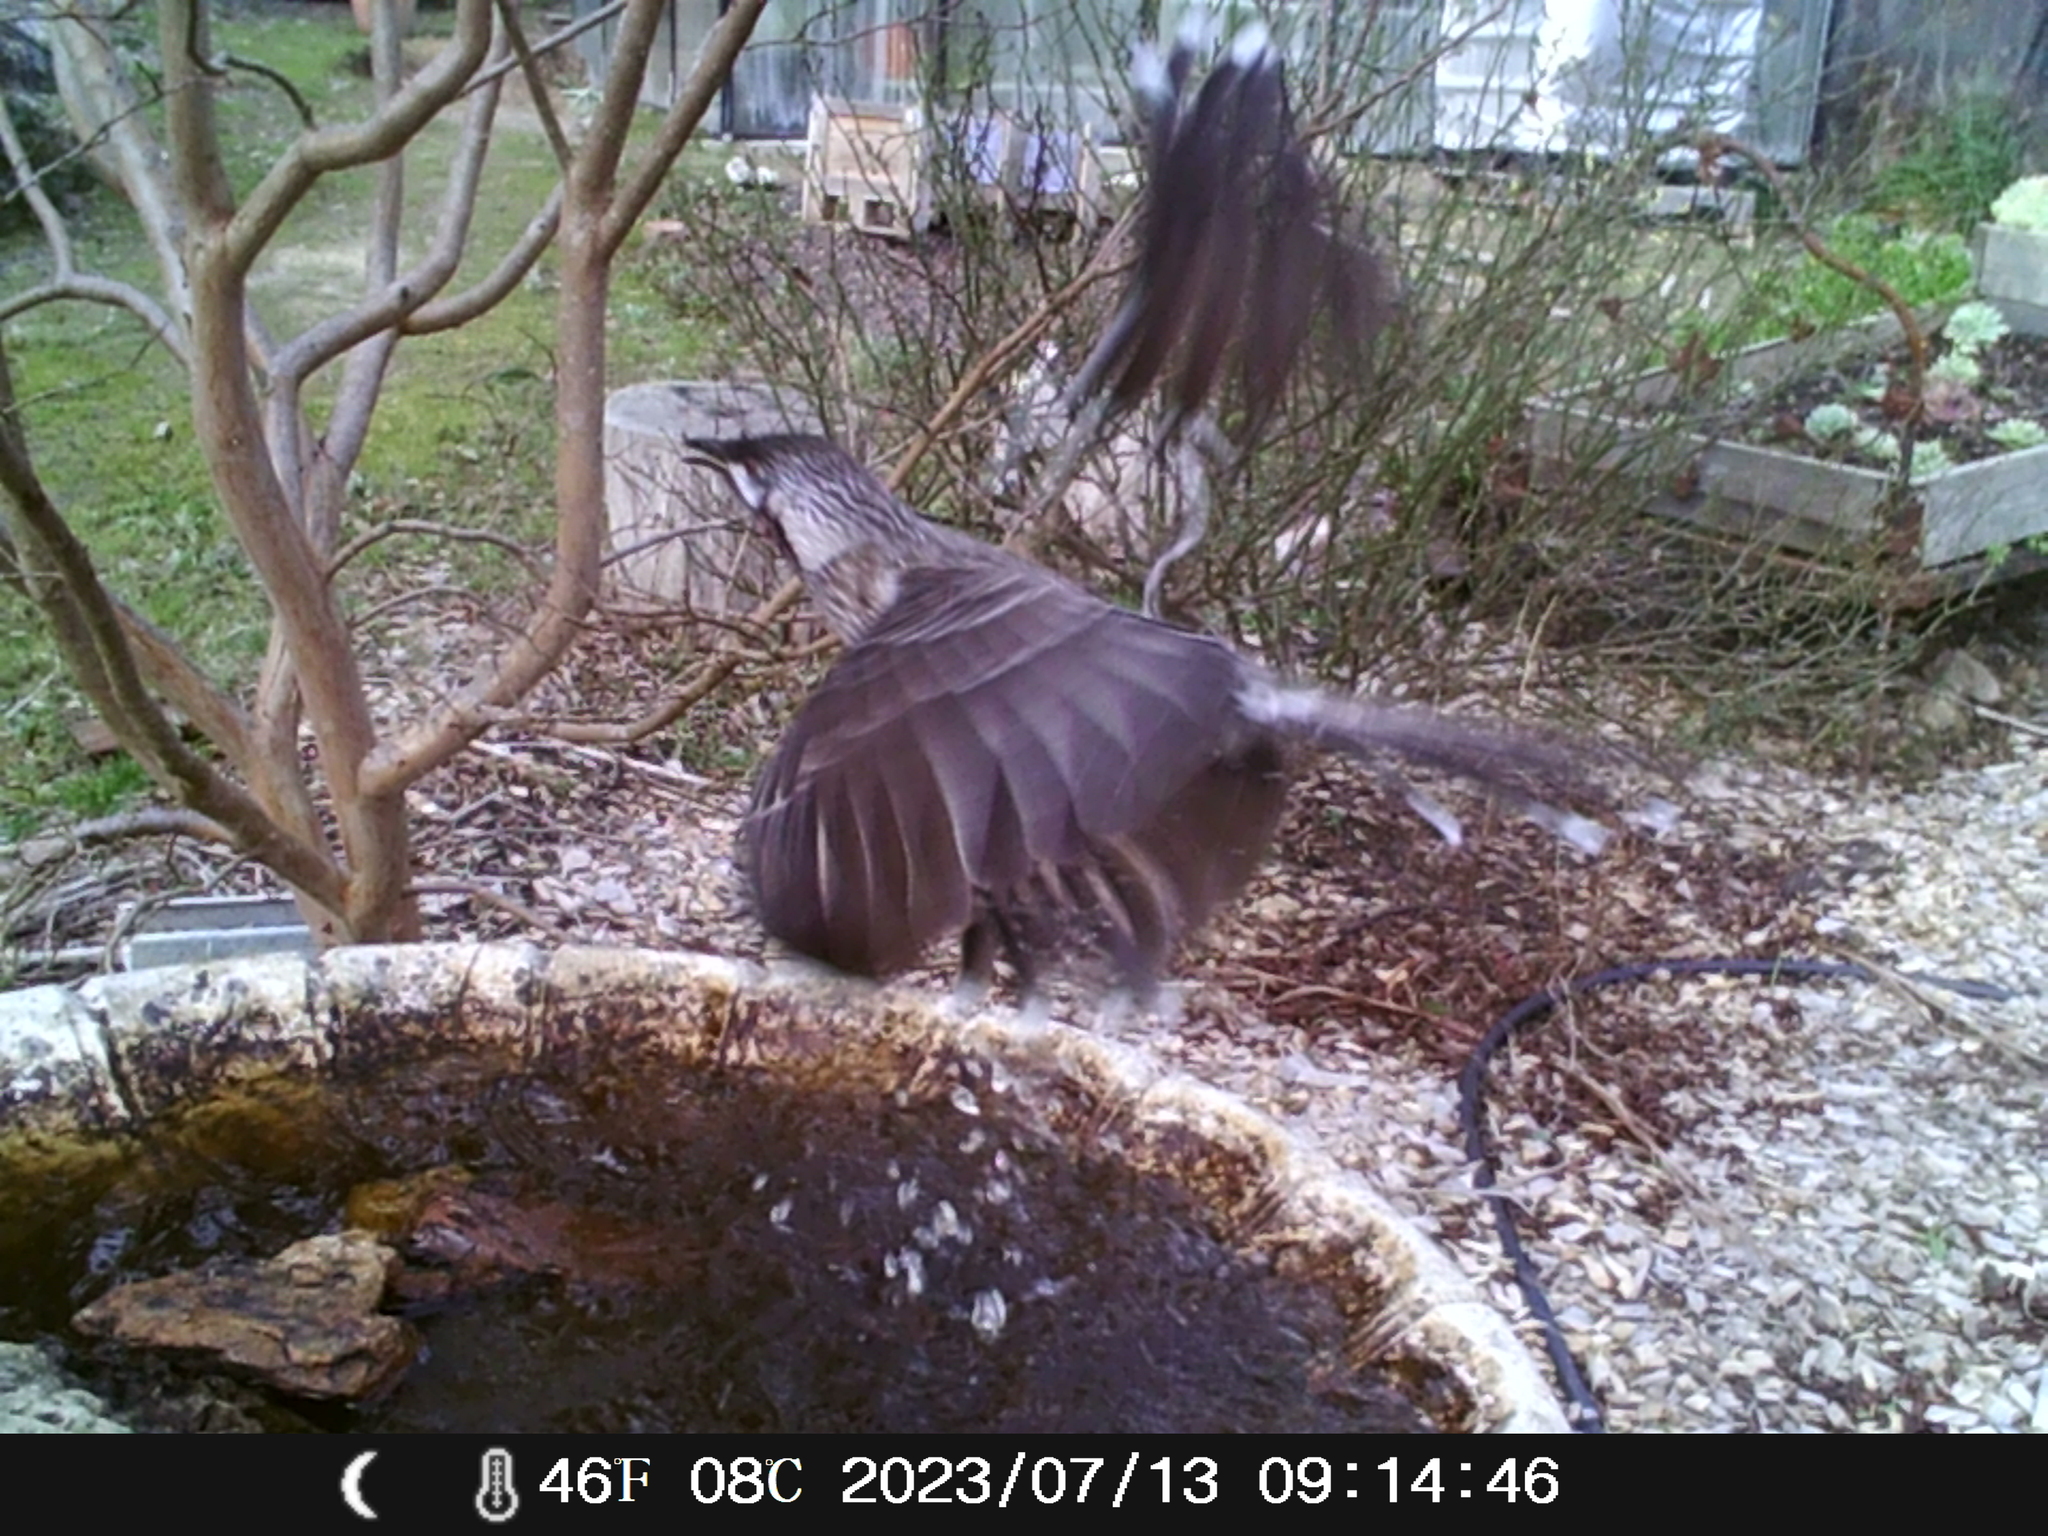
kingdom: Animalia
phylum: Chordata
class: Aves
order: Passeriformes
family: Meliphagidae
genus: Anthochaera
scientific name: Anthochaera carunculata
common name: Red wattlebird
